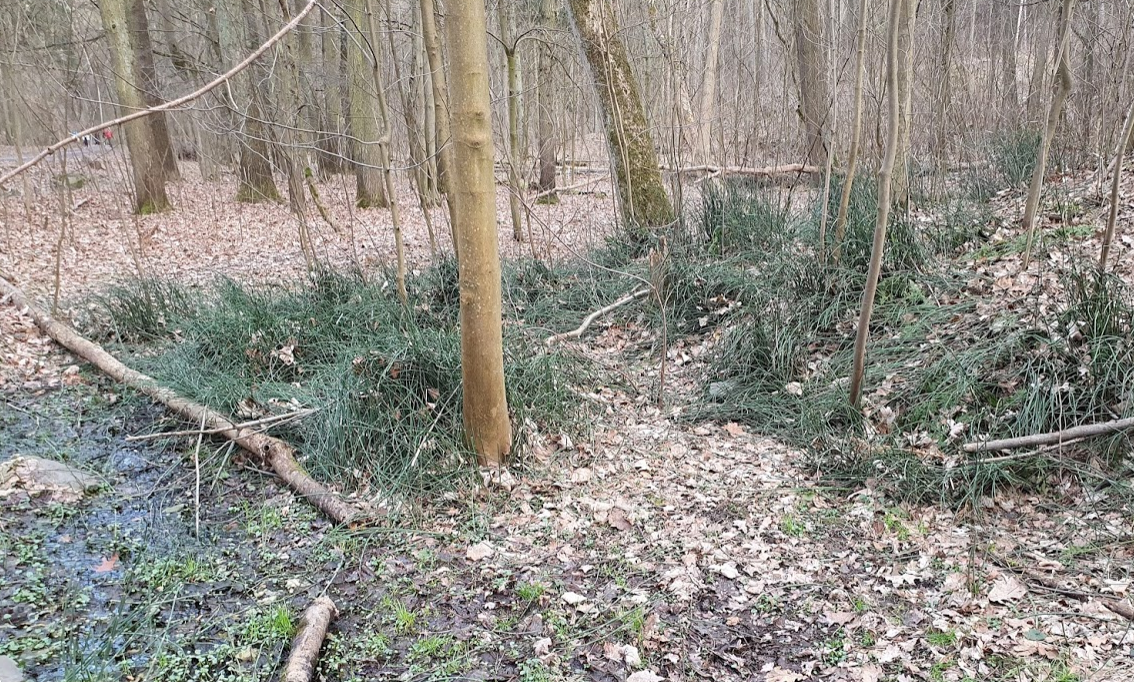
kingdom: Plantae
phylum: Tracheophyta
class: Polypodiopsida
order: Equisetales
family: Equisetaceae
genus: Equisetum
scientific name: Equisetum hyemale
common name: Rough horsetail
